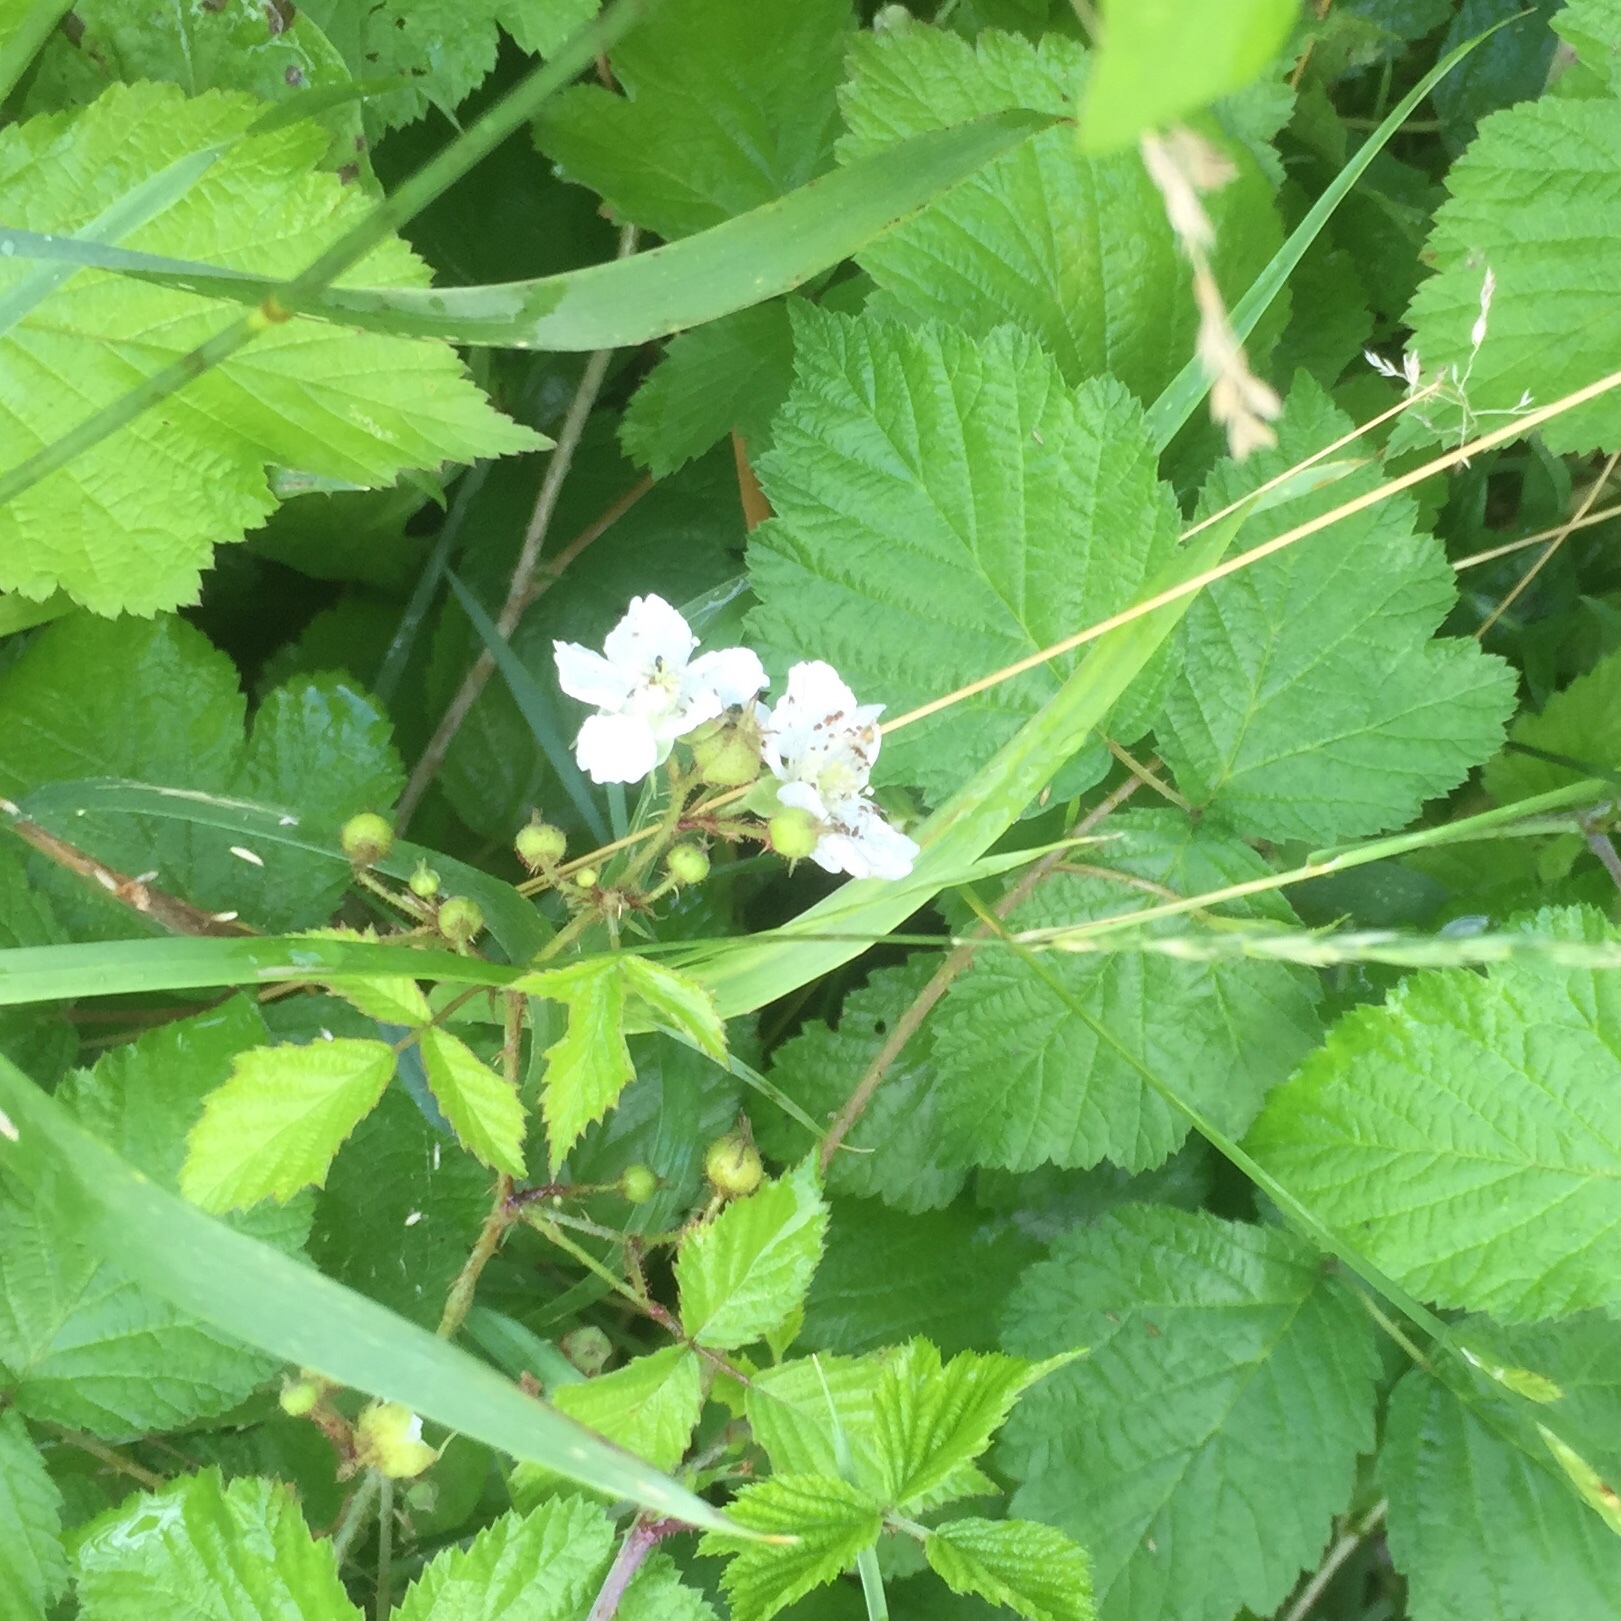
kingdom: Plantae
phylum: Tracheophyta
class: Magnoliopsida
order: Rosales
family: Rosaceae
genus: Rubus
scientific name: Rubus caesius
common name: Dewberry
